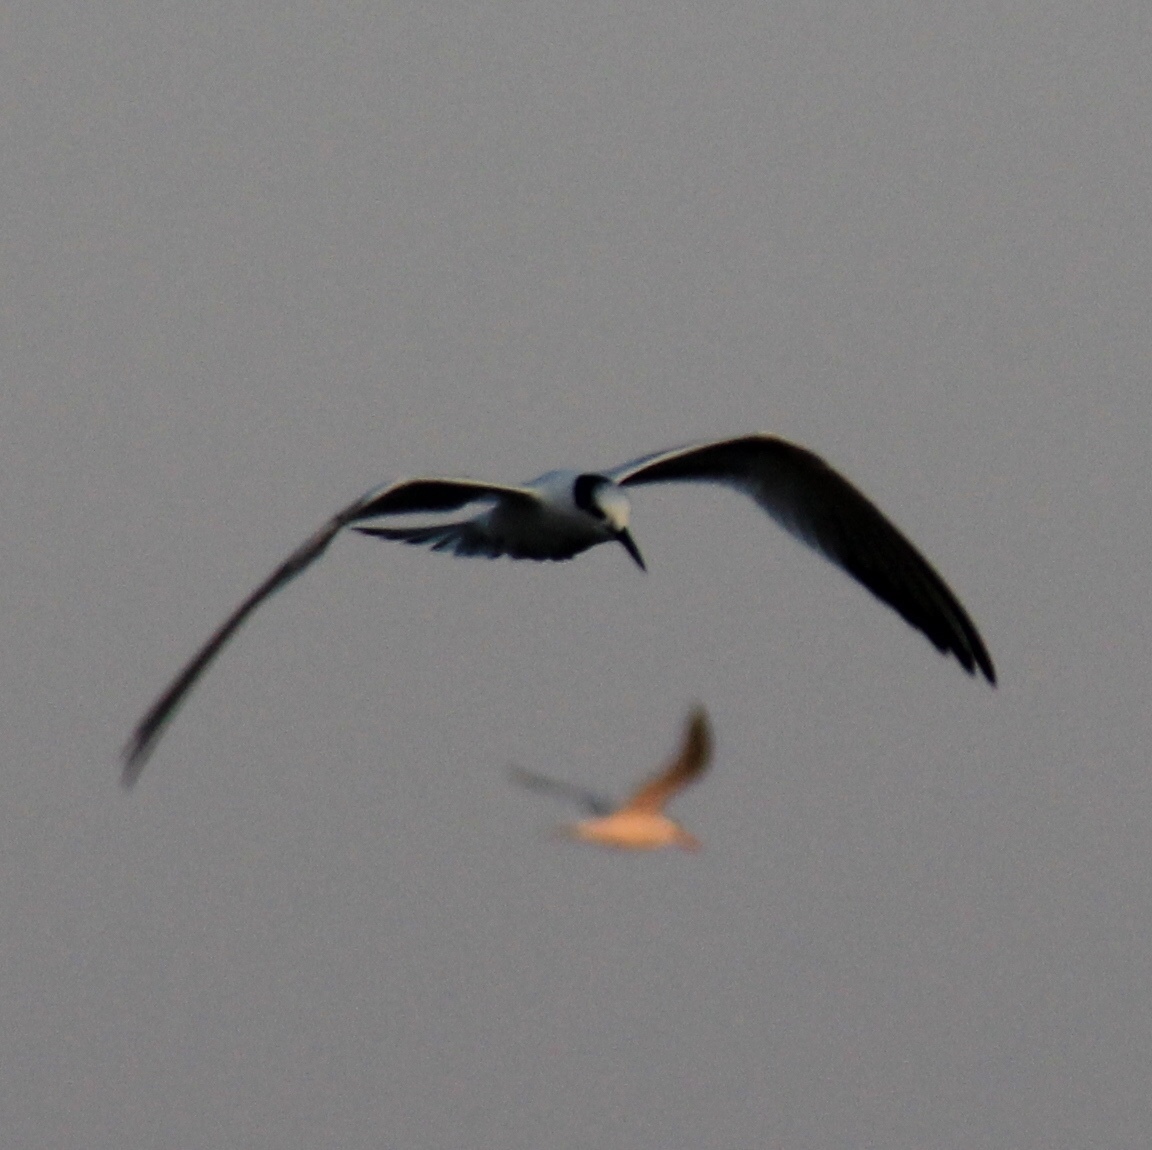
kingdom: Animalia
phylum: Chordata
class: Aves
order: Charadriiformes
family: Laridae
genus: Thalasseus
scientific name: Thalasseus sandvicensis
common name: Sandwich tern
